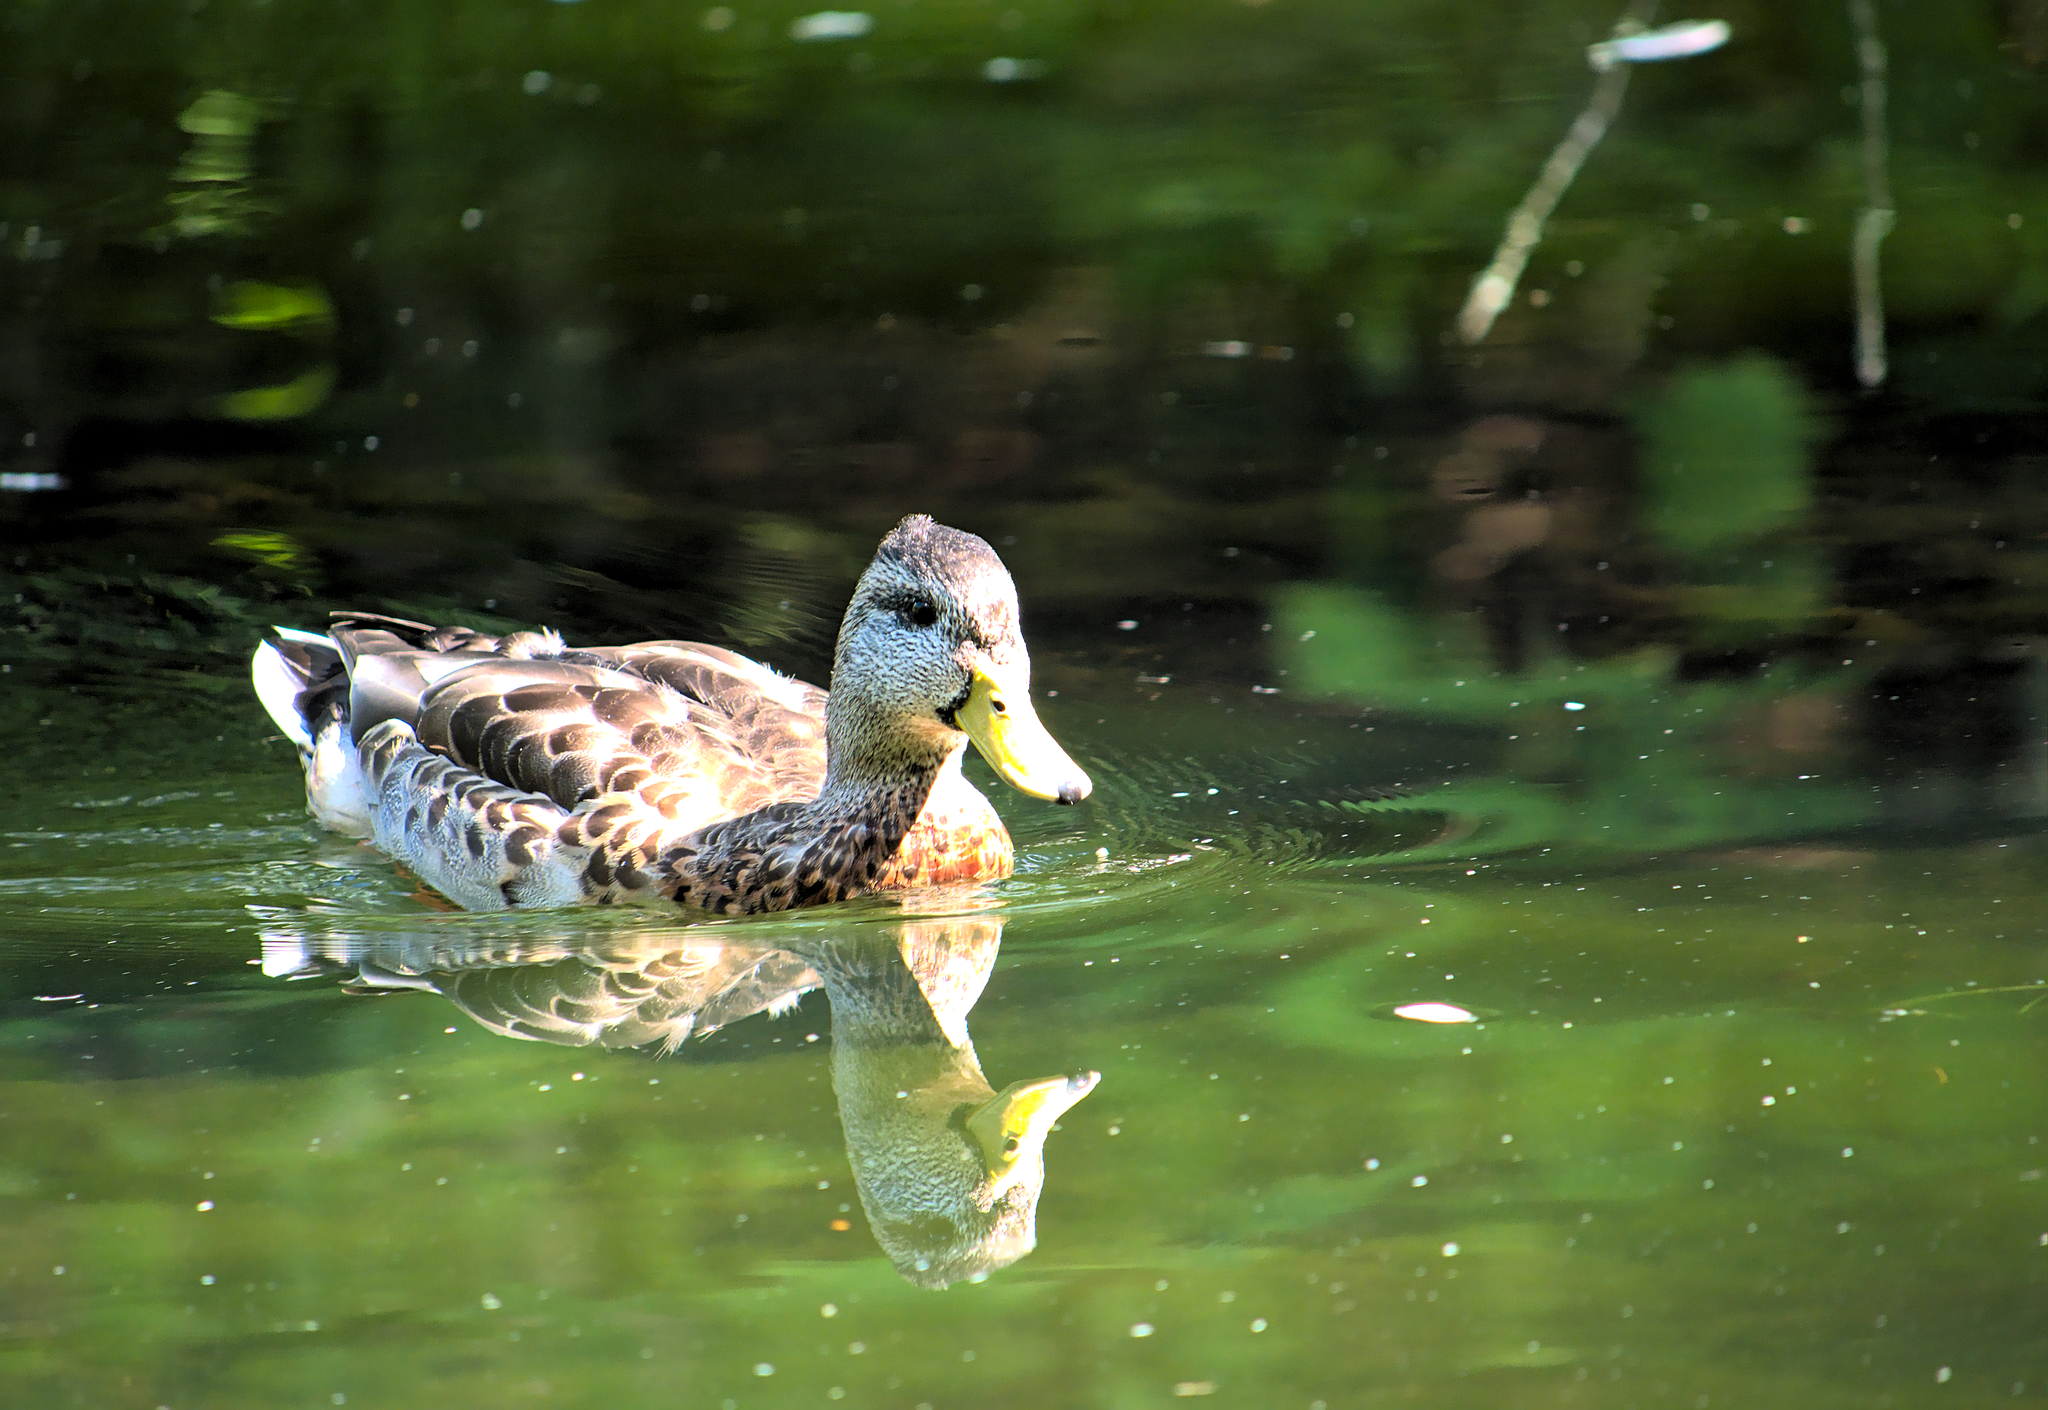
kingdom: Animalia
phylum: Chordata
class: Aves
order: Anseriformes
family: Anatidae
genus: Anas
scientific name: Anas platyrhynchos
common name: Mallard
